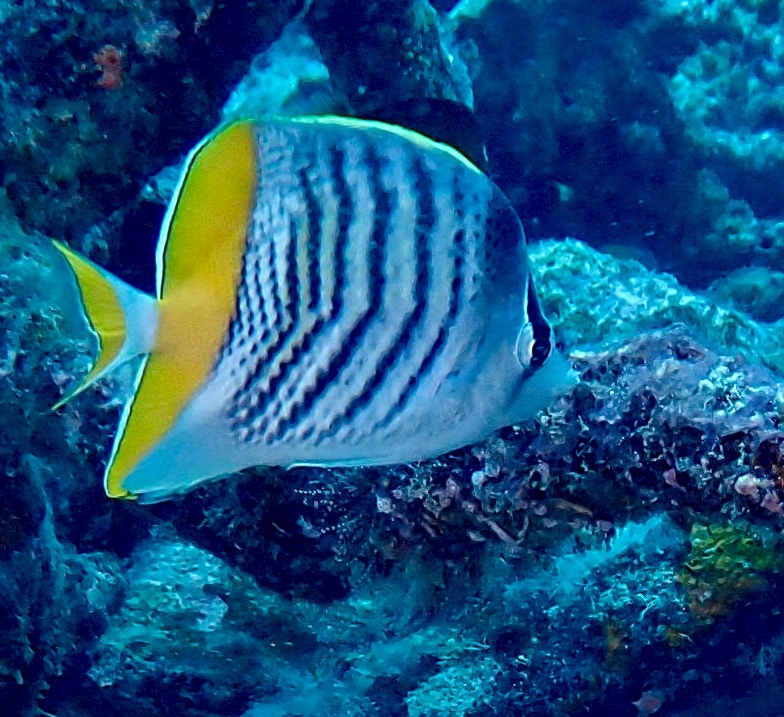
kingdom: Animalia
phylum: Chordata
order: Perciformes
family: Chaetodontidae
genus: Chaetodon
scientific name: Chaetodon mertensii
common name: Merten's butterflyfish
